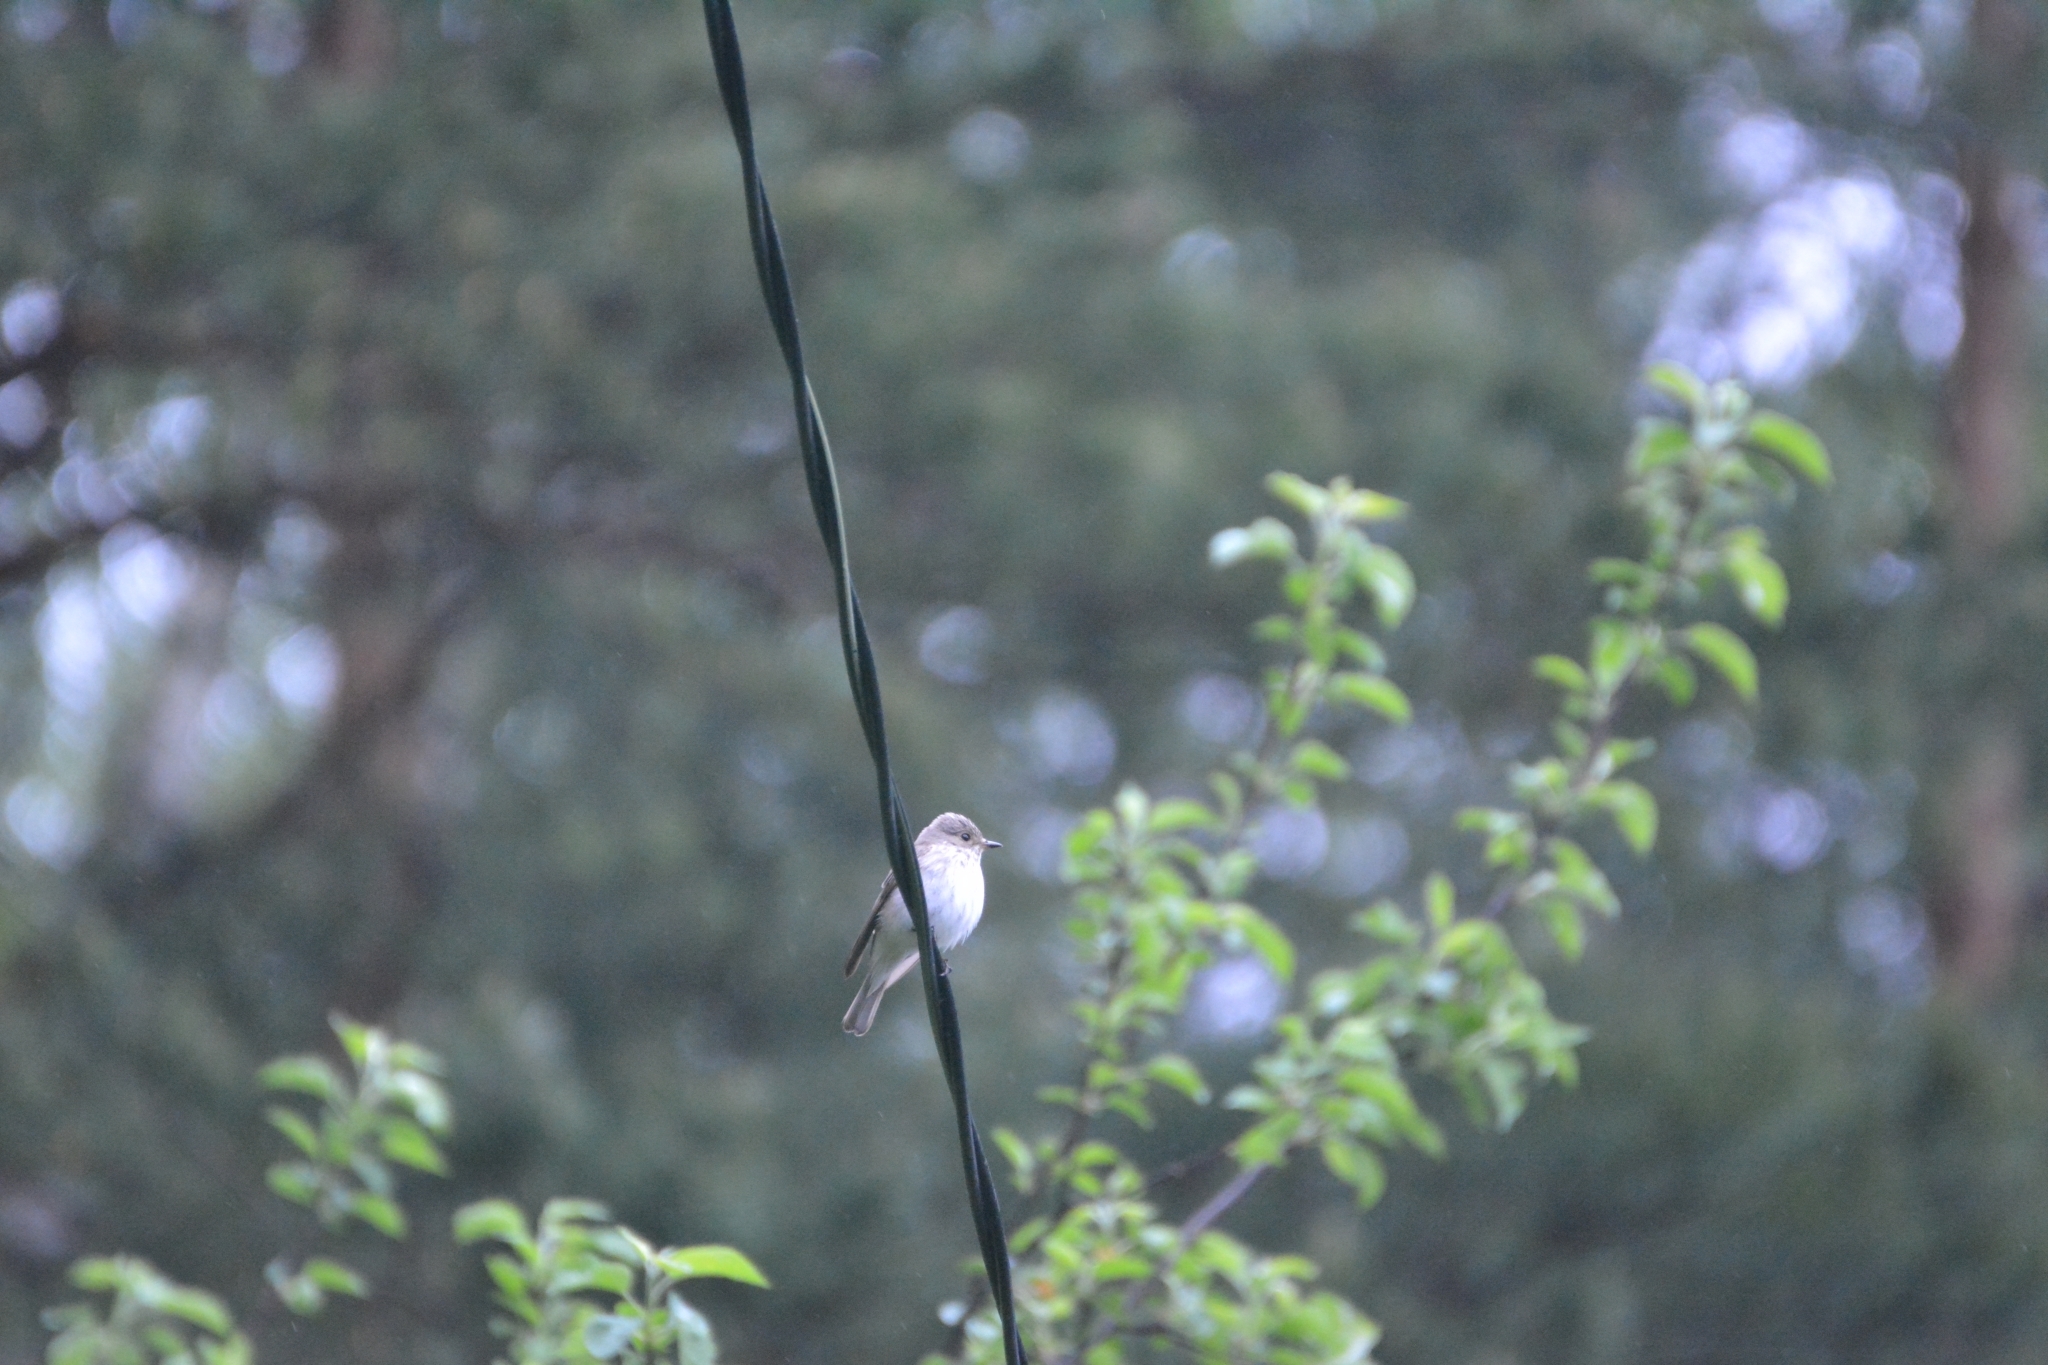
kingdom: Animalia
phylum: Chordata
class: Aves
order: Passeriformes
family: Muscicapidae
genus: Muscicapa
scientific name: Muscicapa striata
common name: Spotted flycatcher
